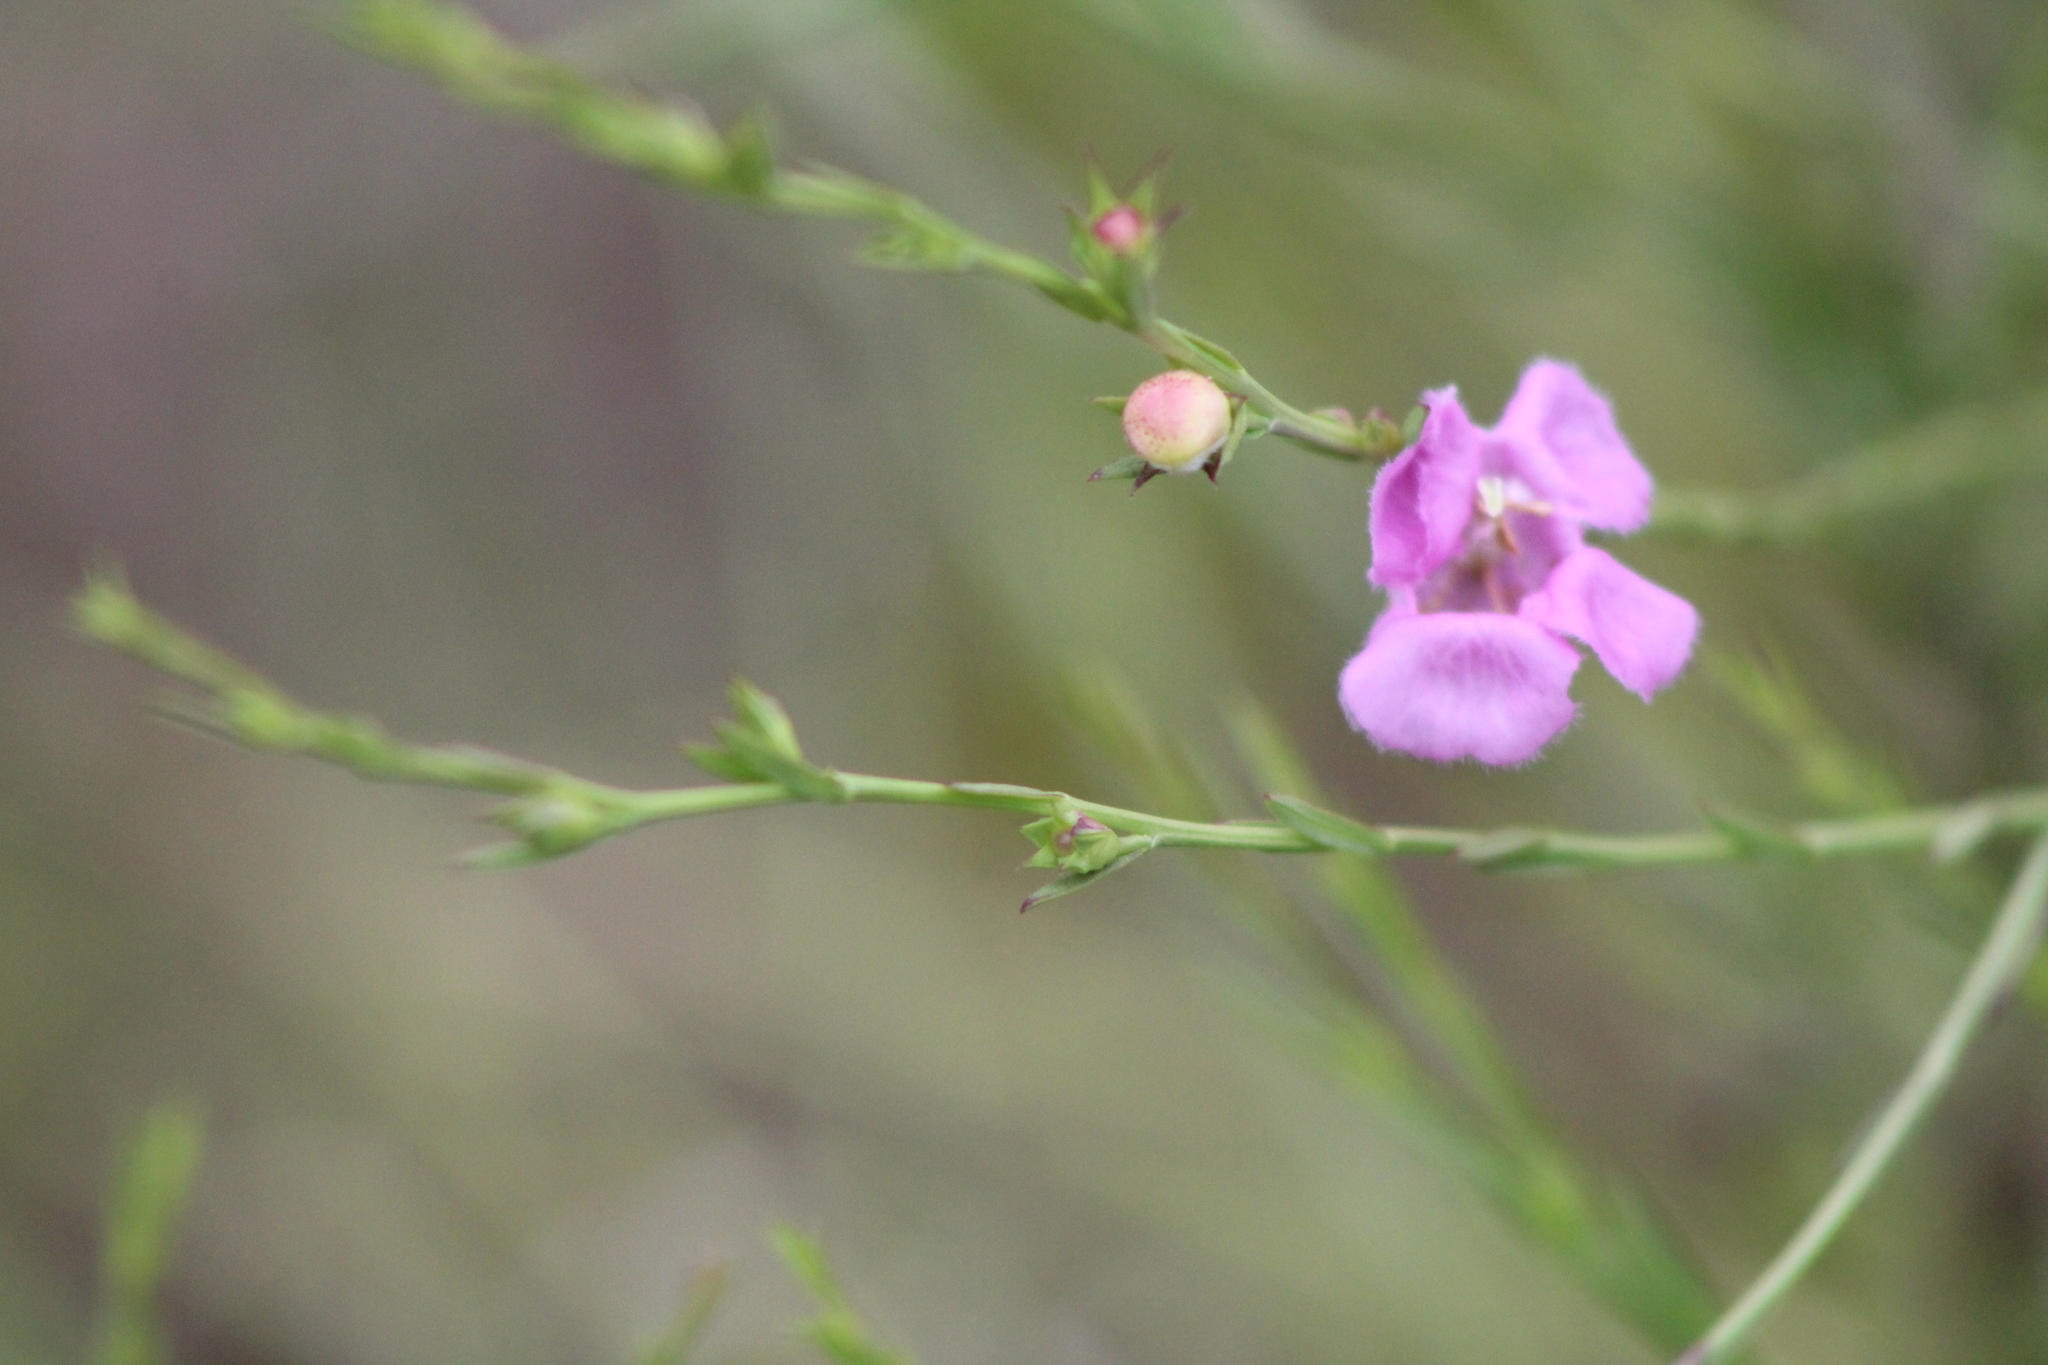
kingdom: Plantae
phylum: Tracheophyta
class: Magnoliopsida
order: Lamiales
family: Orobanchaceae
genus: Agalinis
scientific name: Agalinis heterophylla
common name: Prairie agalinis
